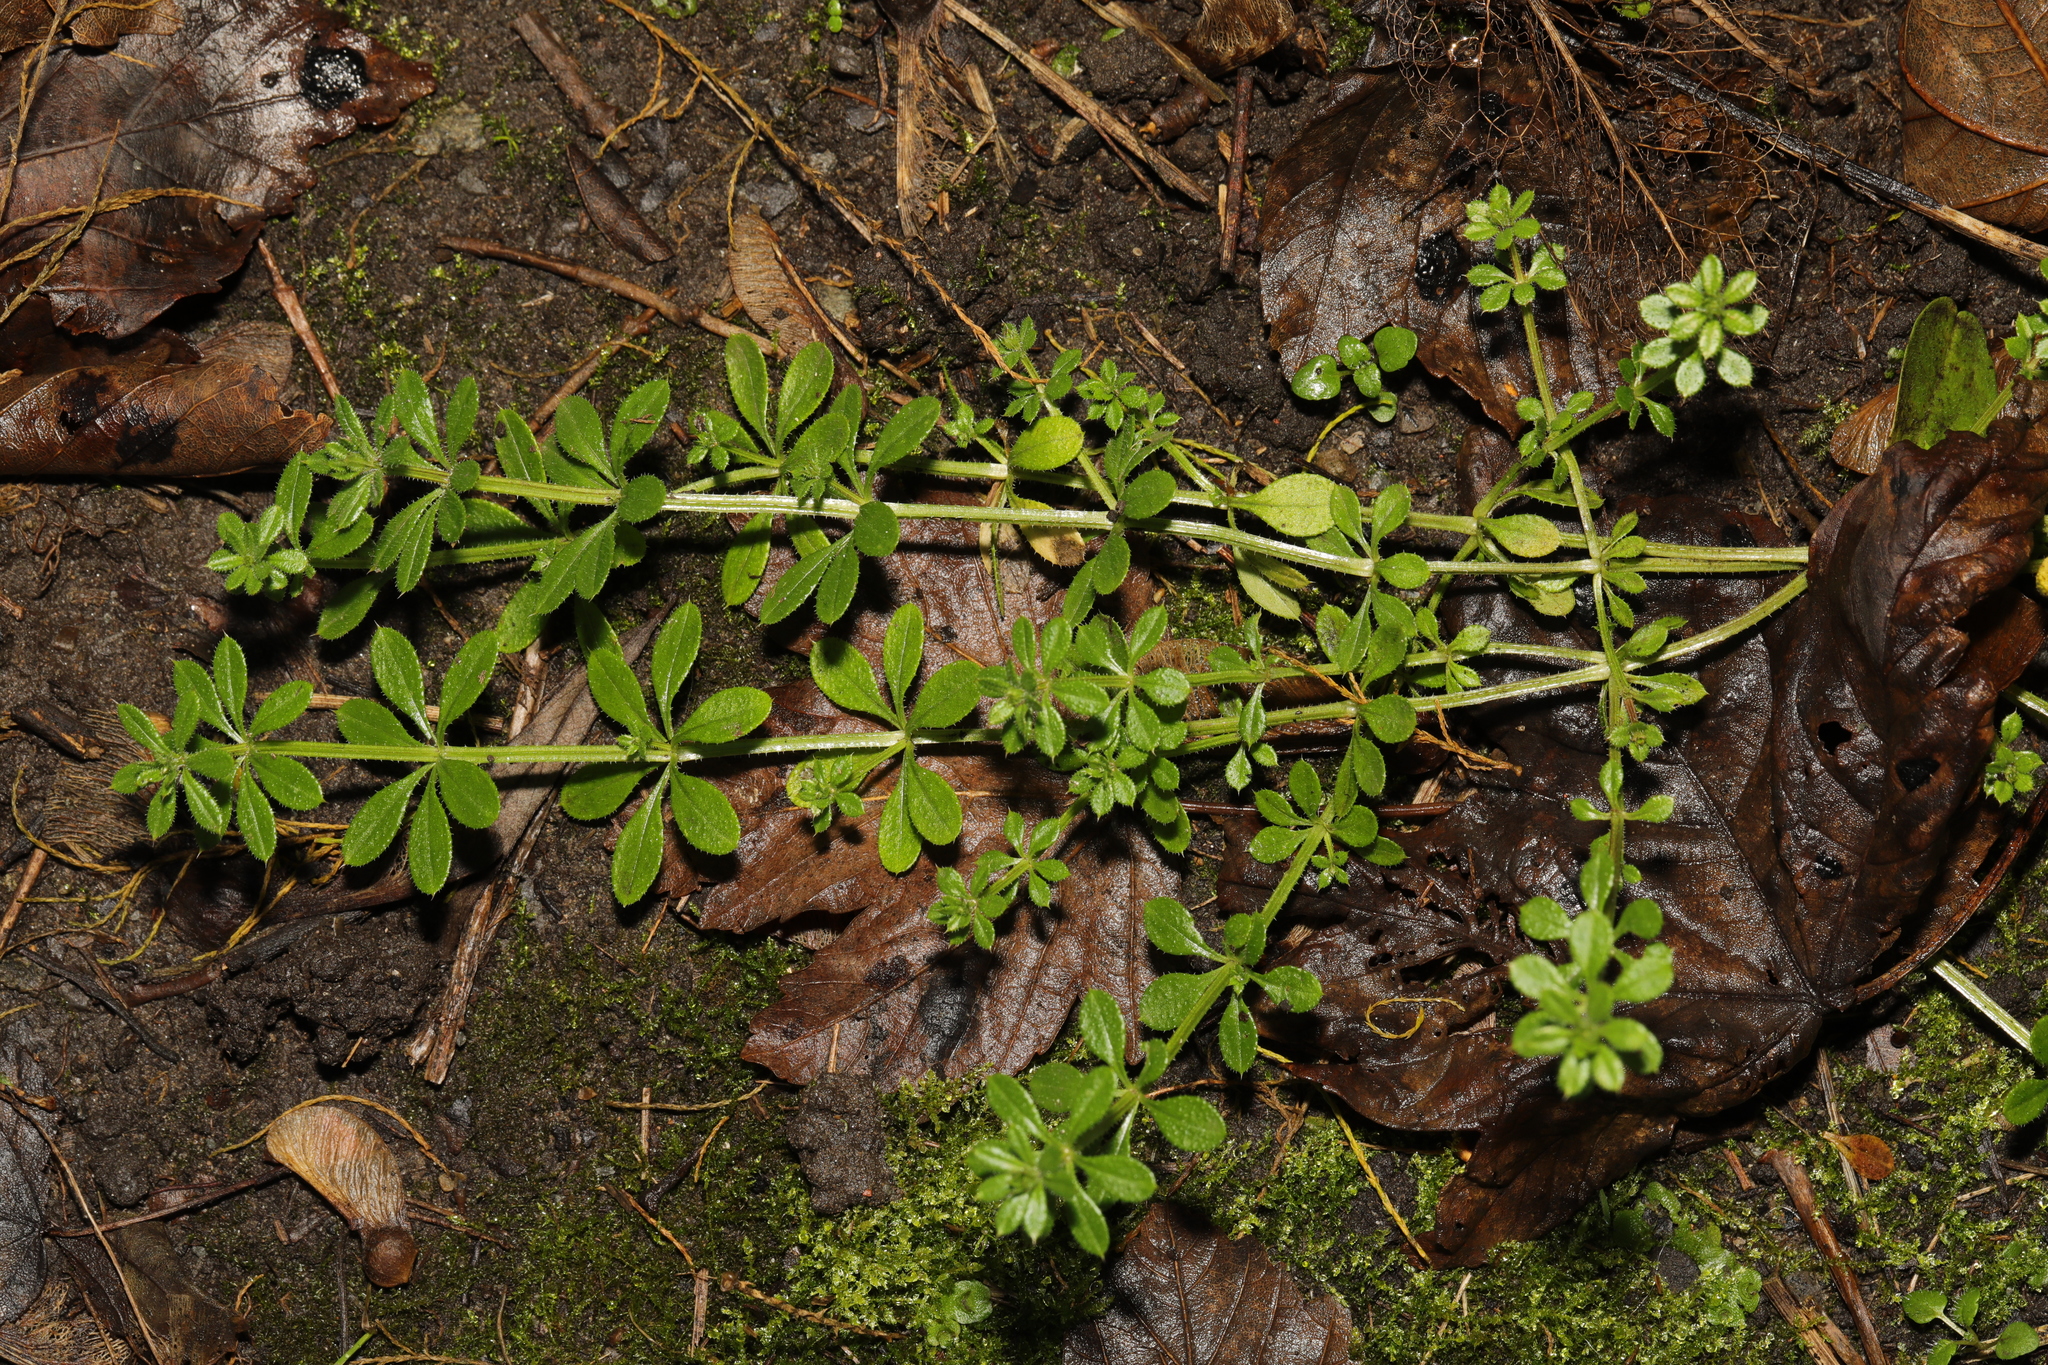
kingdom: Plantae
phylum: Tracheophyta
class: Magnoliopsida
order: Gentianales
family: Rubiaceae
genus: Galium
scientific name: Galium aparine
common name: Cleavers
